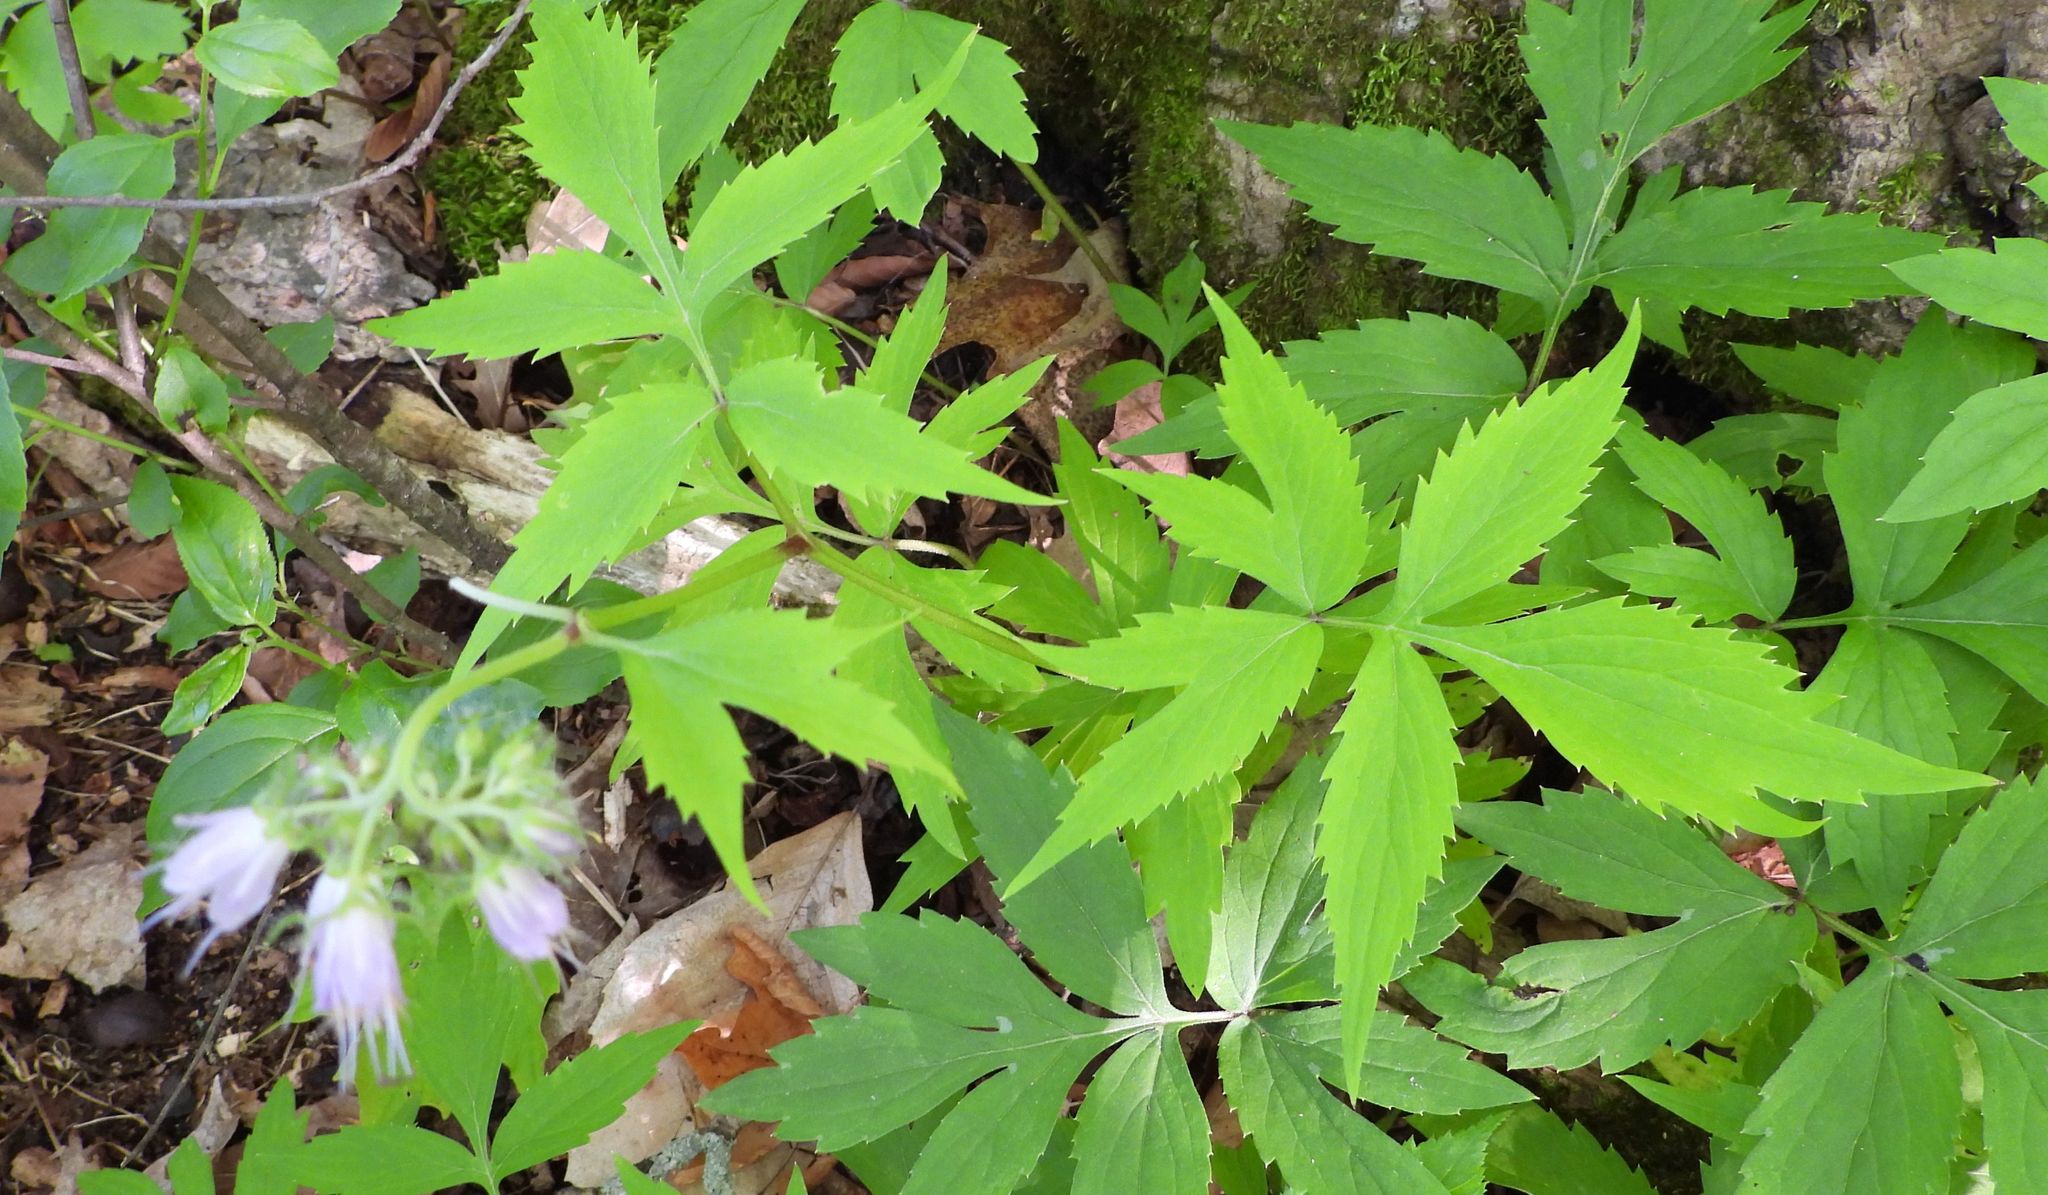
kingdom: Plantae
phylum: Tracheophyta
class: Magnoliopsida
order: Boraginales
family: Hydrophyllaceae
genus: Hydrophyllum
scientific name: Hydrophyllum virginianum
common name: Virginia waterleaf
